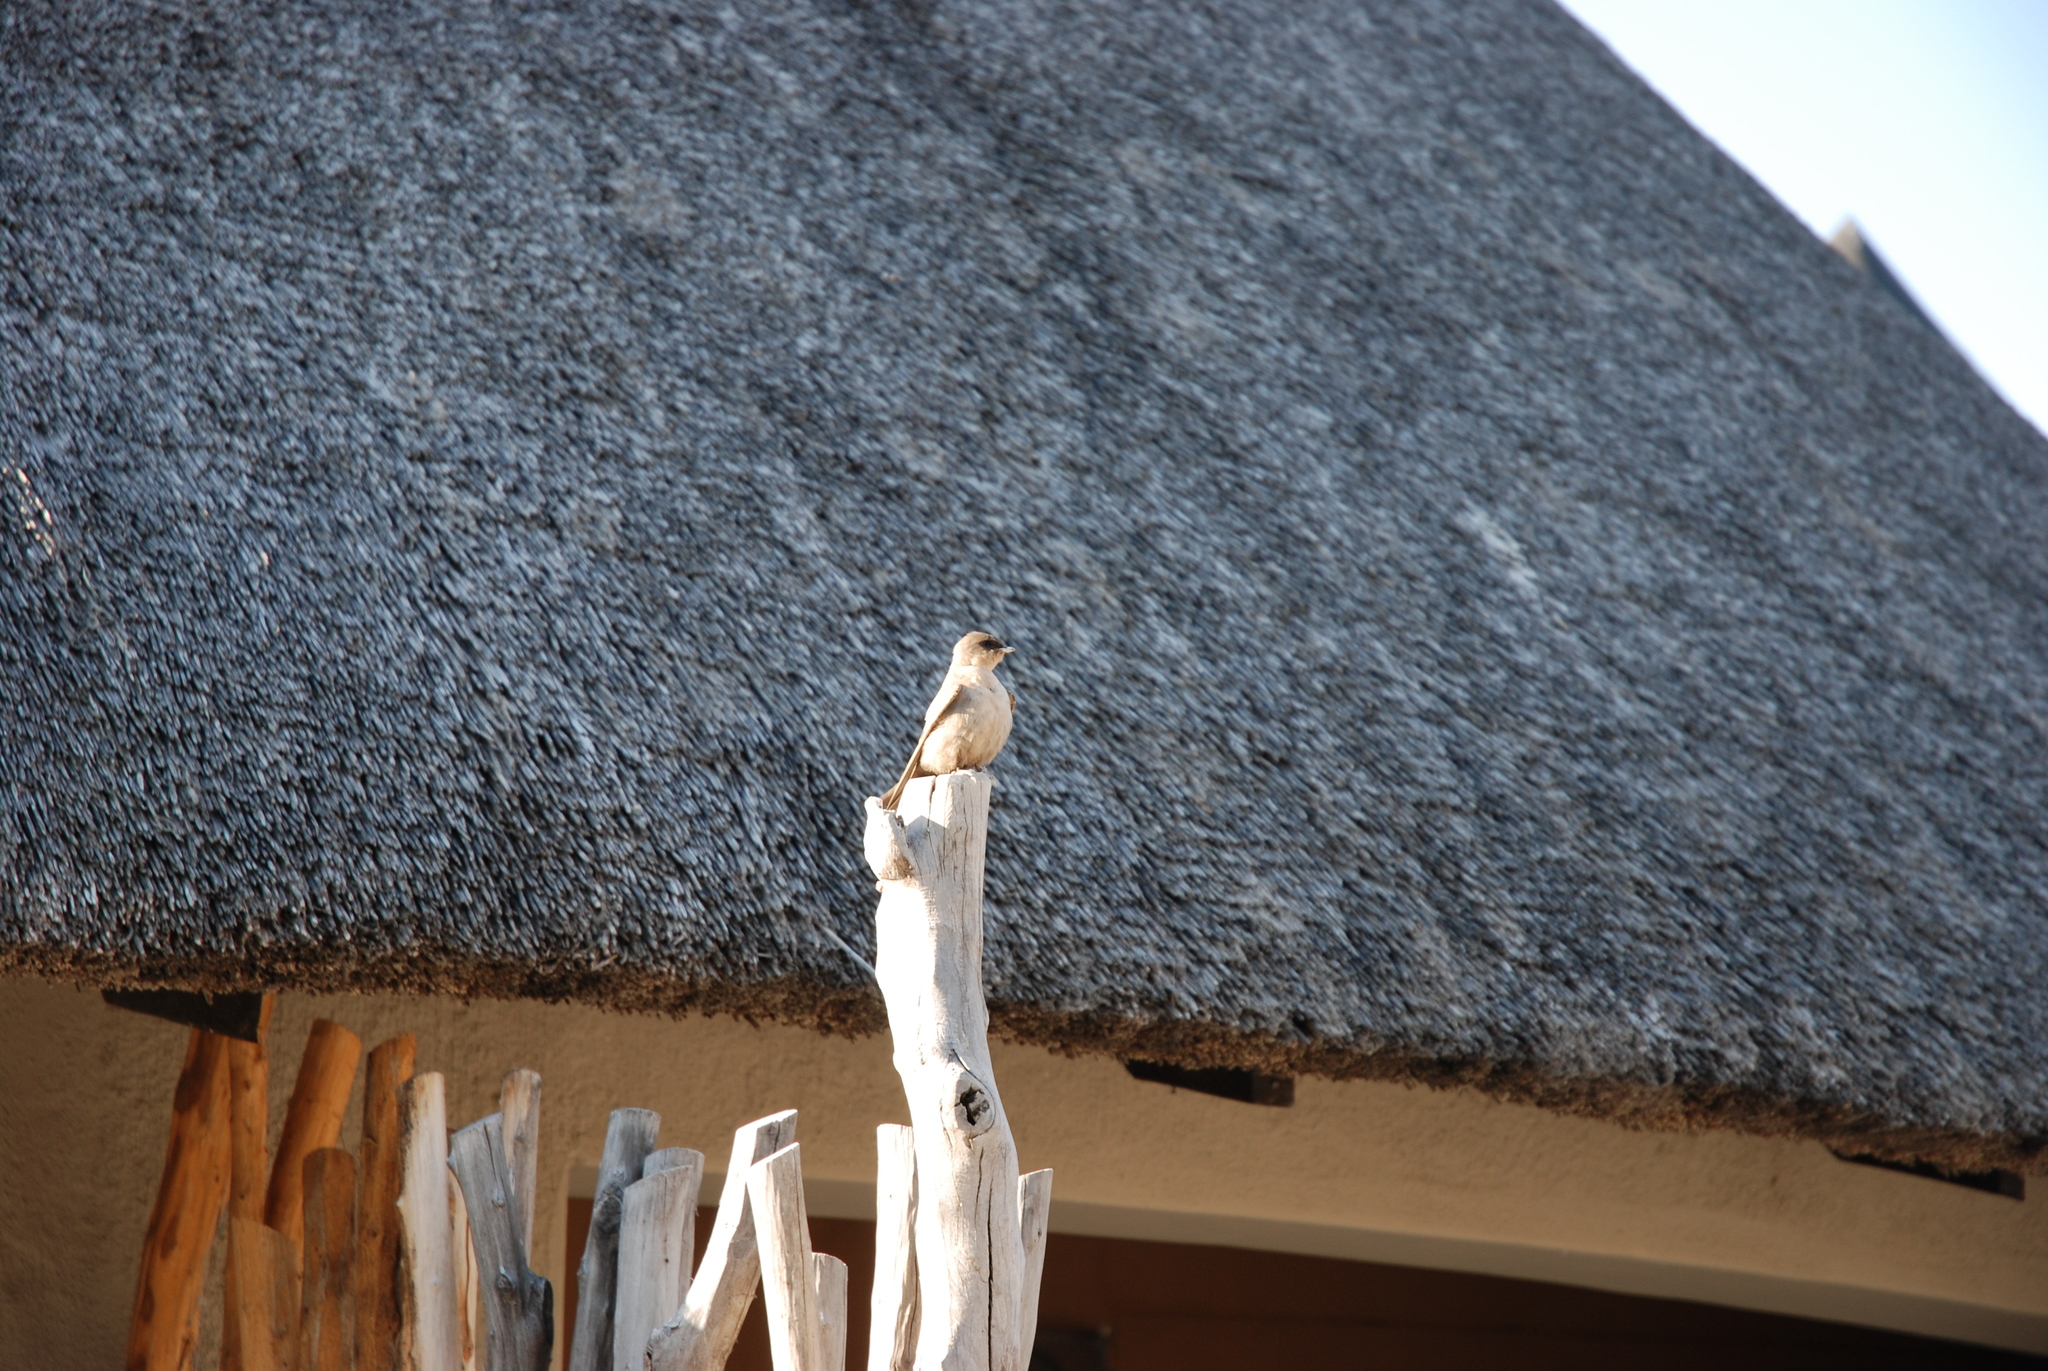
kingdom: Animalia
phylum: Chordata
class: Aves
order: Passeriformes
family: Hirundinidae
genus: Ptyonoprogne
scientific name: Ptyonoprogne fuligula
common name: Rock martin
